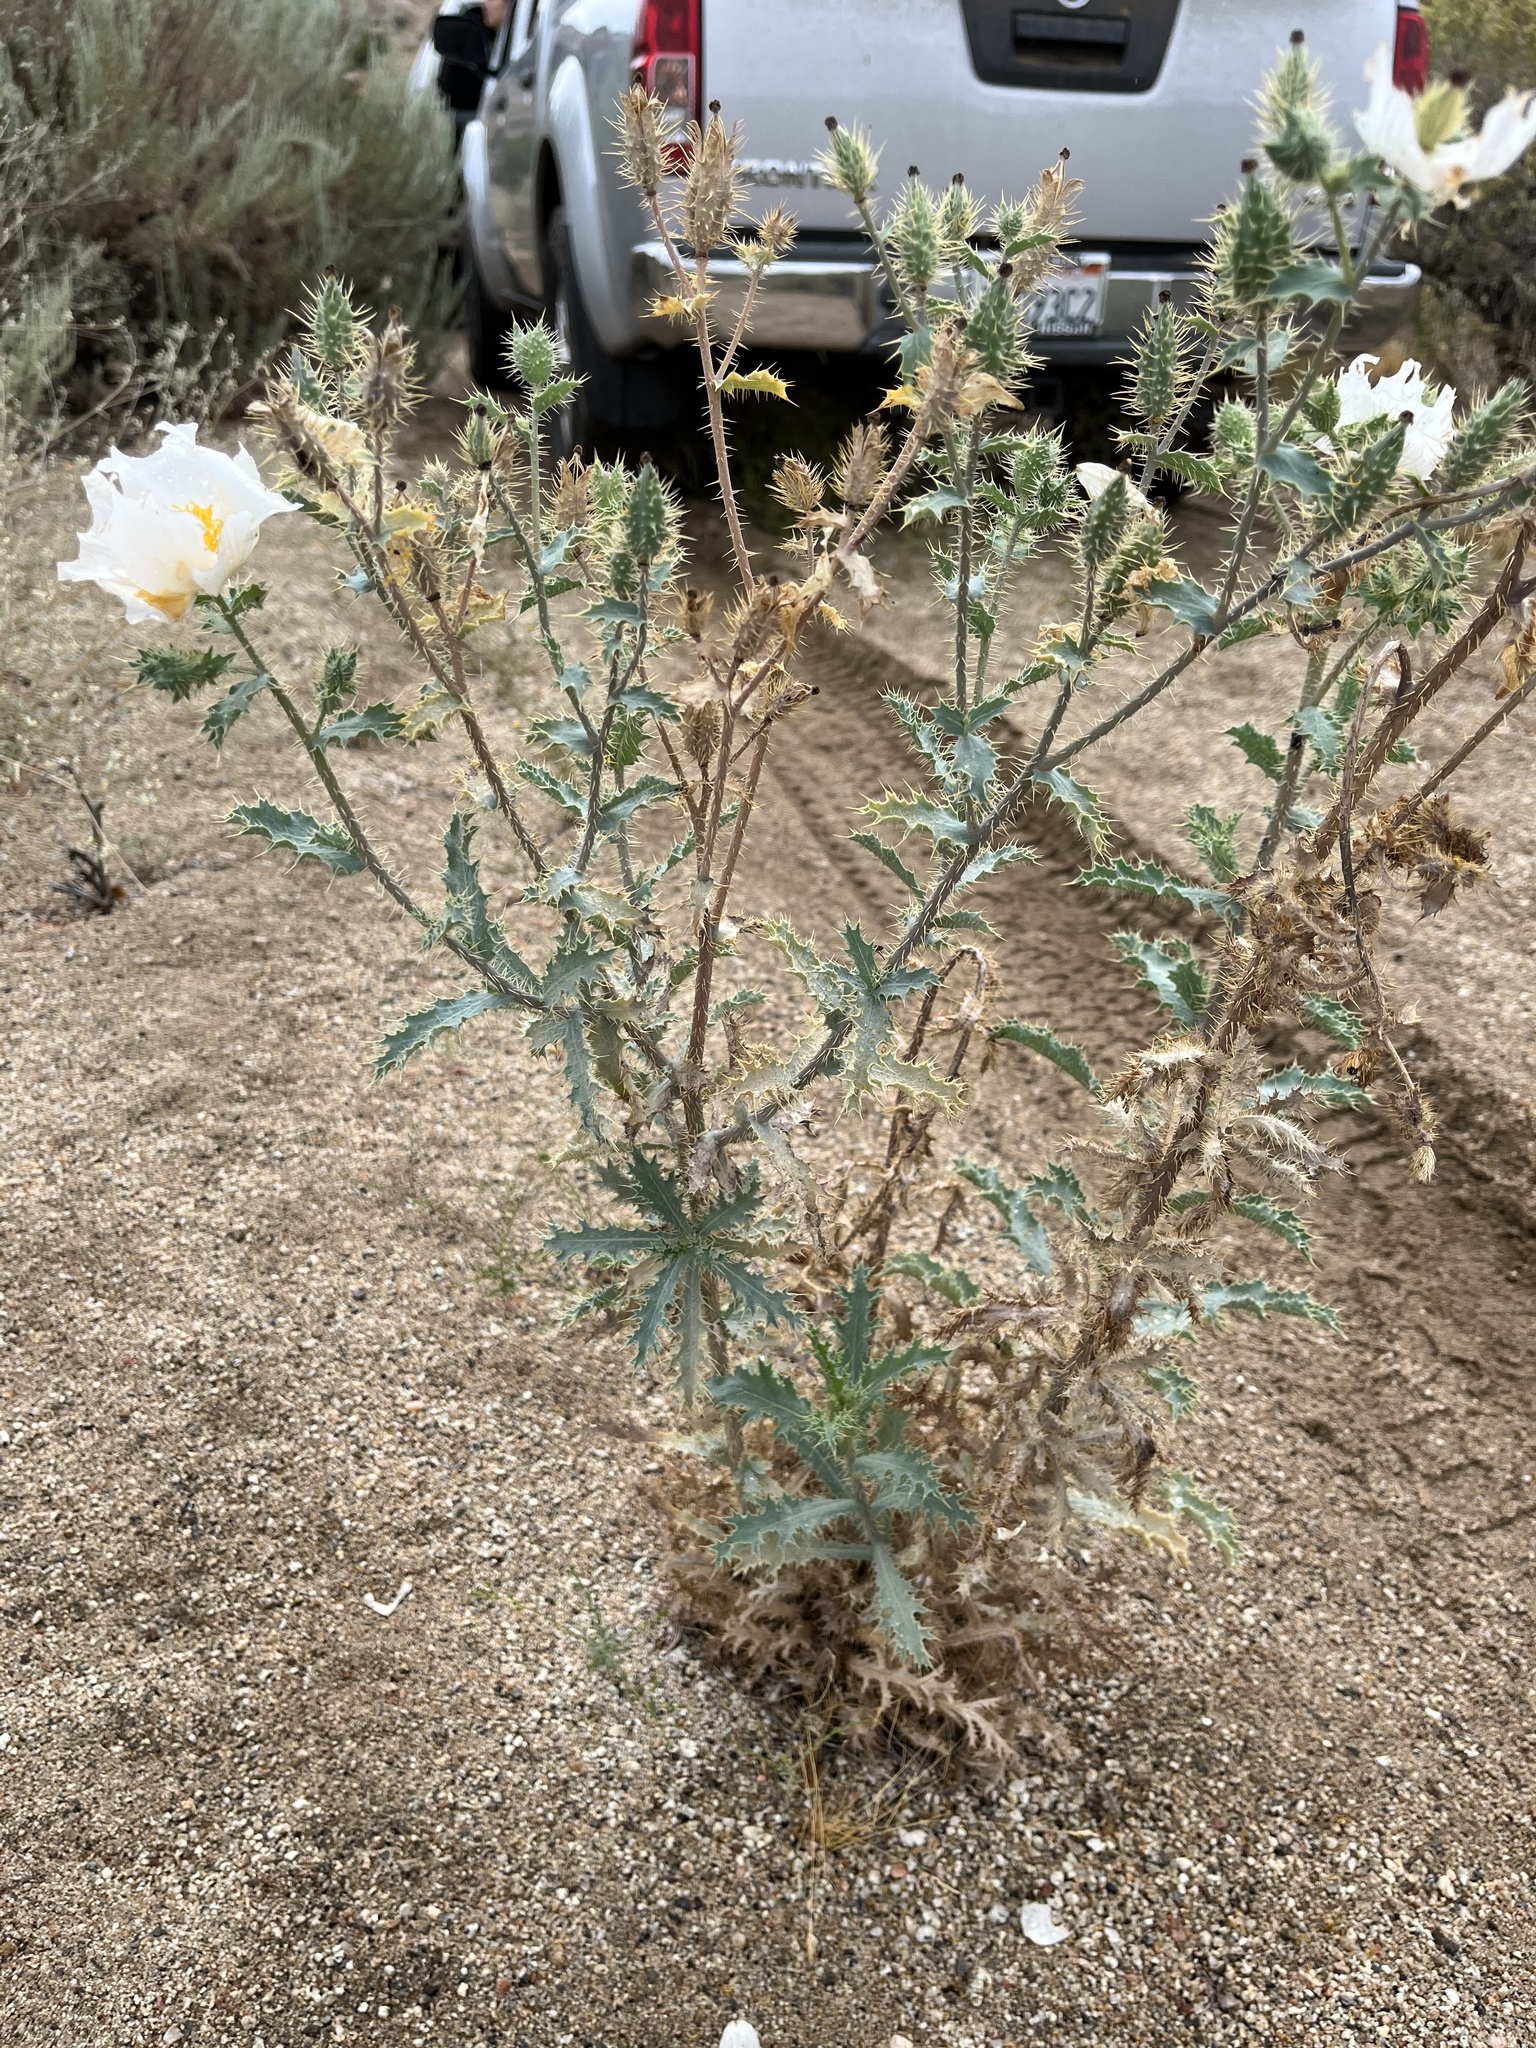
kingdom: Plantae
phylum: Tracheophyta
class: Magnoliopsida
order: Ranunculales
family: Papaveraceae
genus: Argemone
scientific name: Argemone munita
